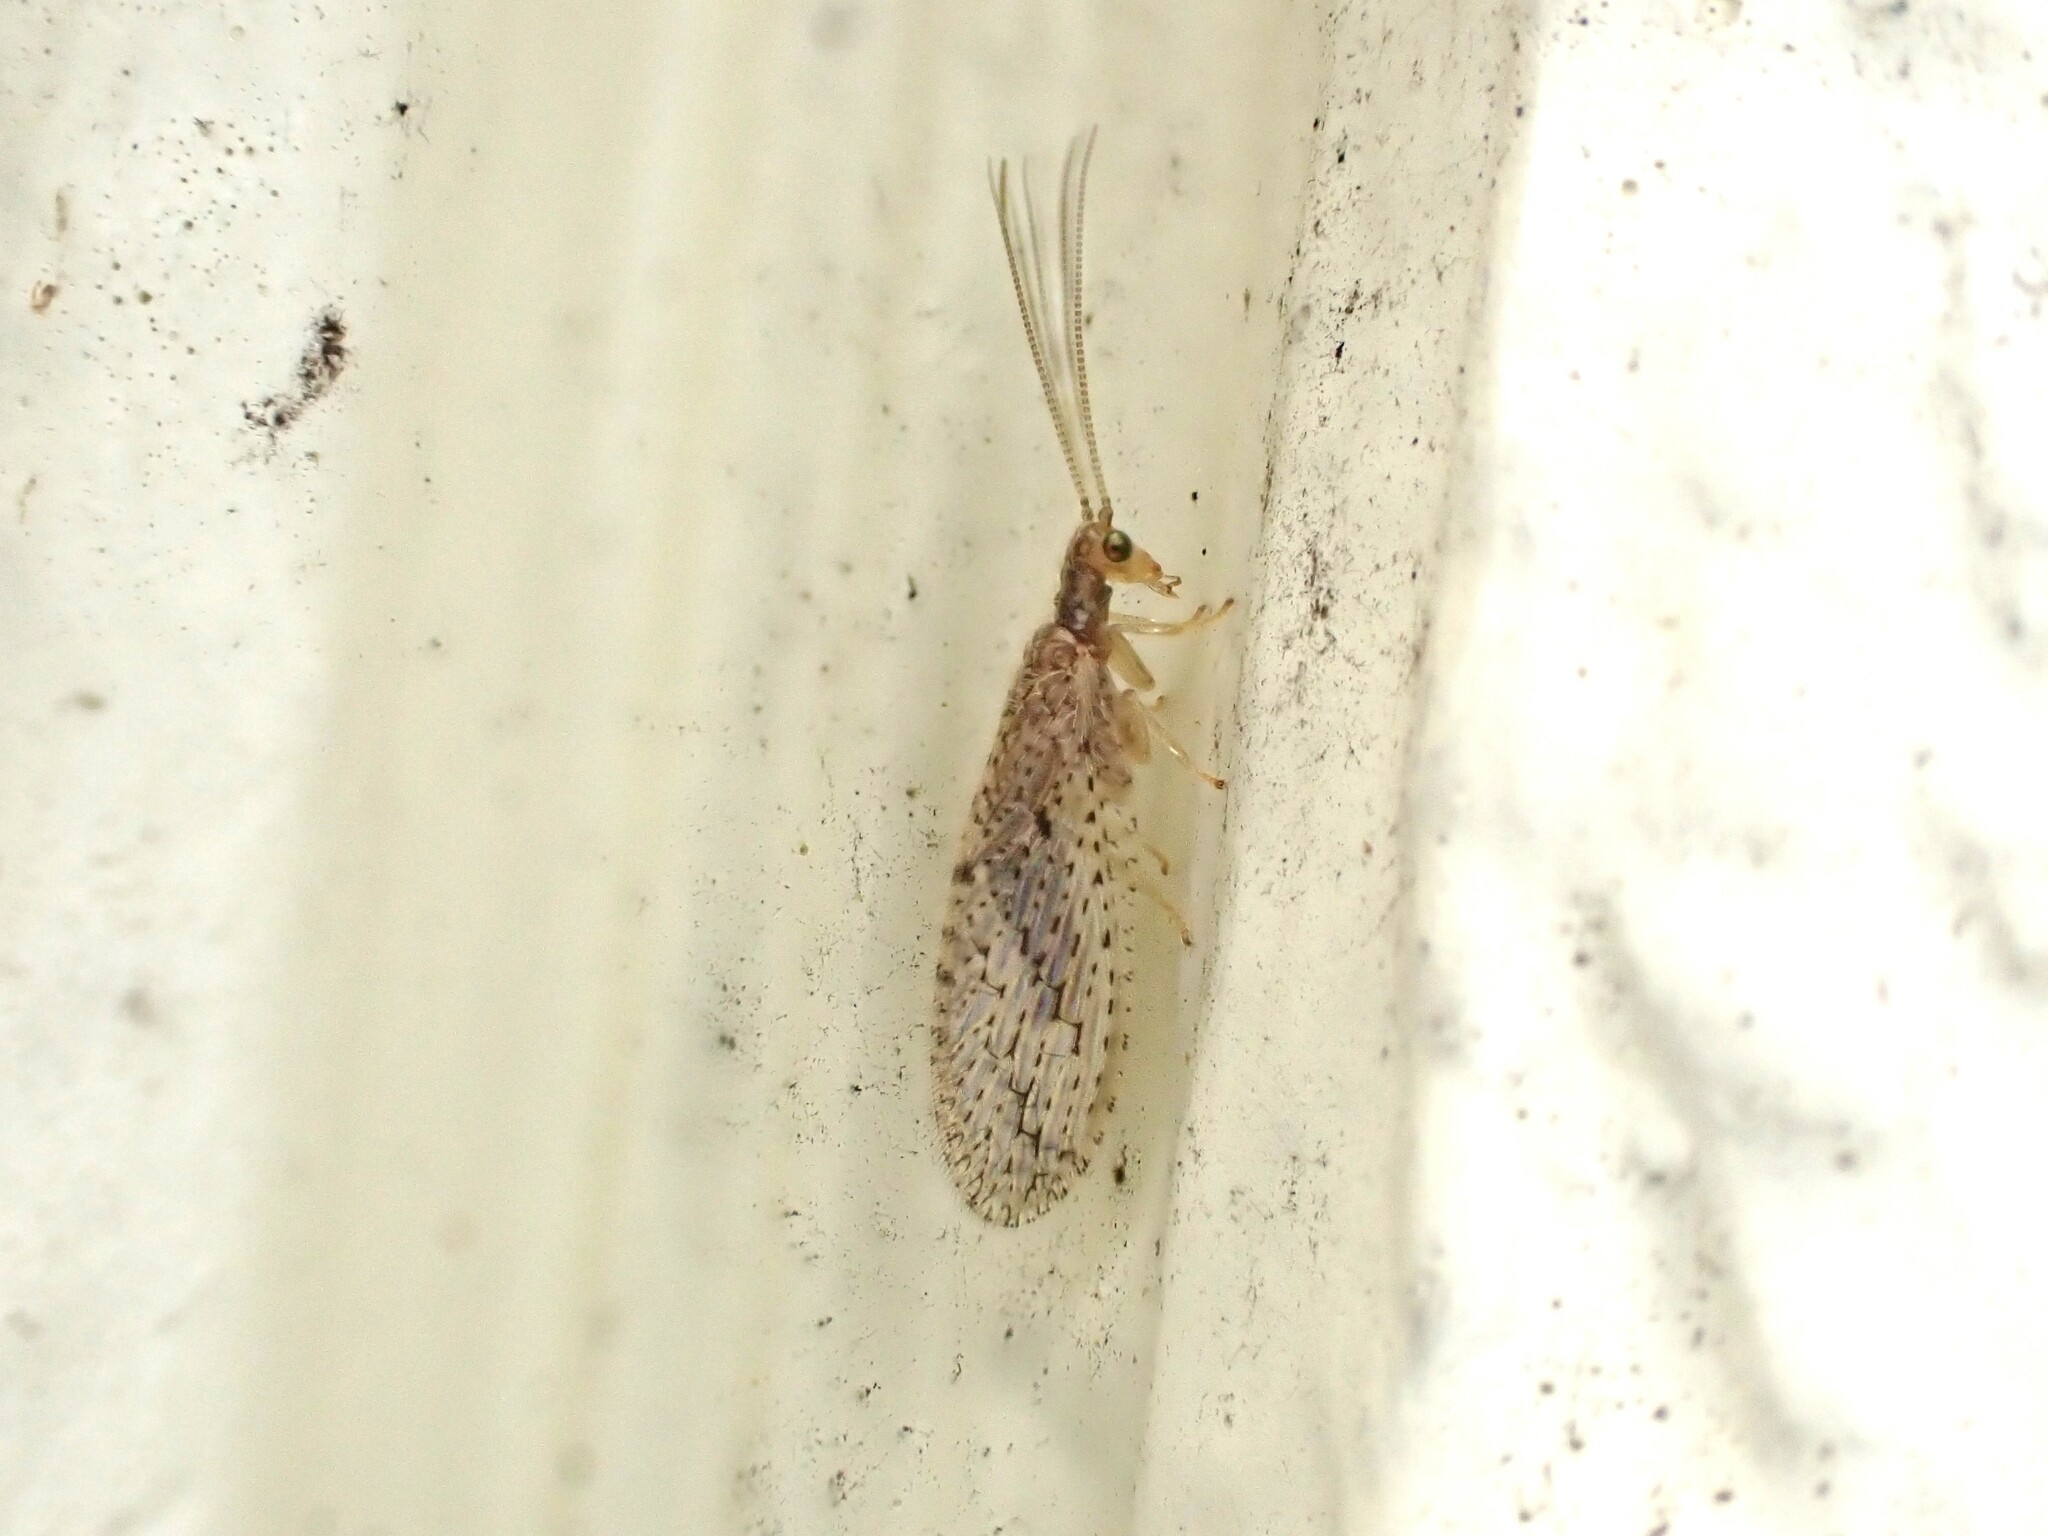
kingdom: Animalia
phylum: Arthropoda
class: Insecta
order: Neuroptera
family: Hemerobiidae
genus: Micromus
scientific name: Micromus tasmaniae
